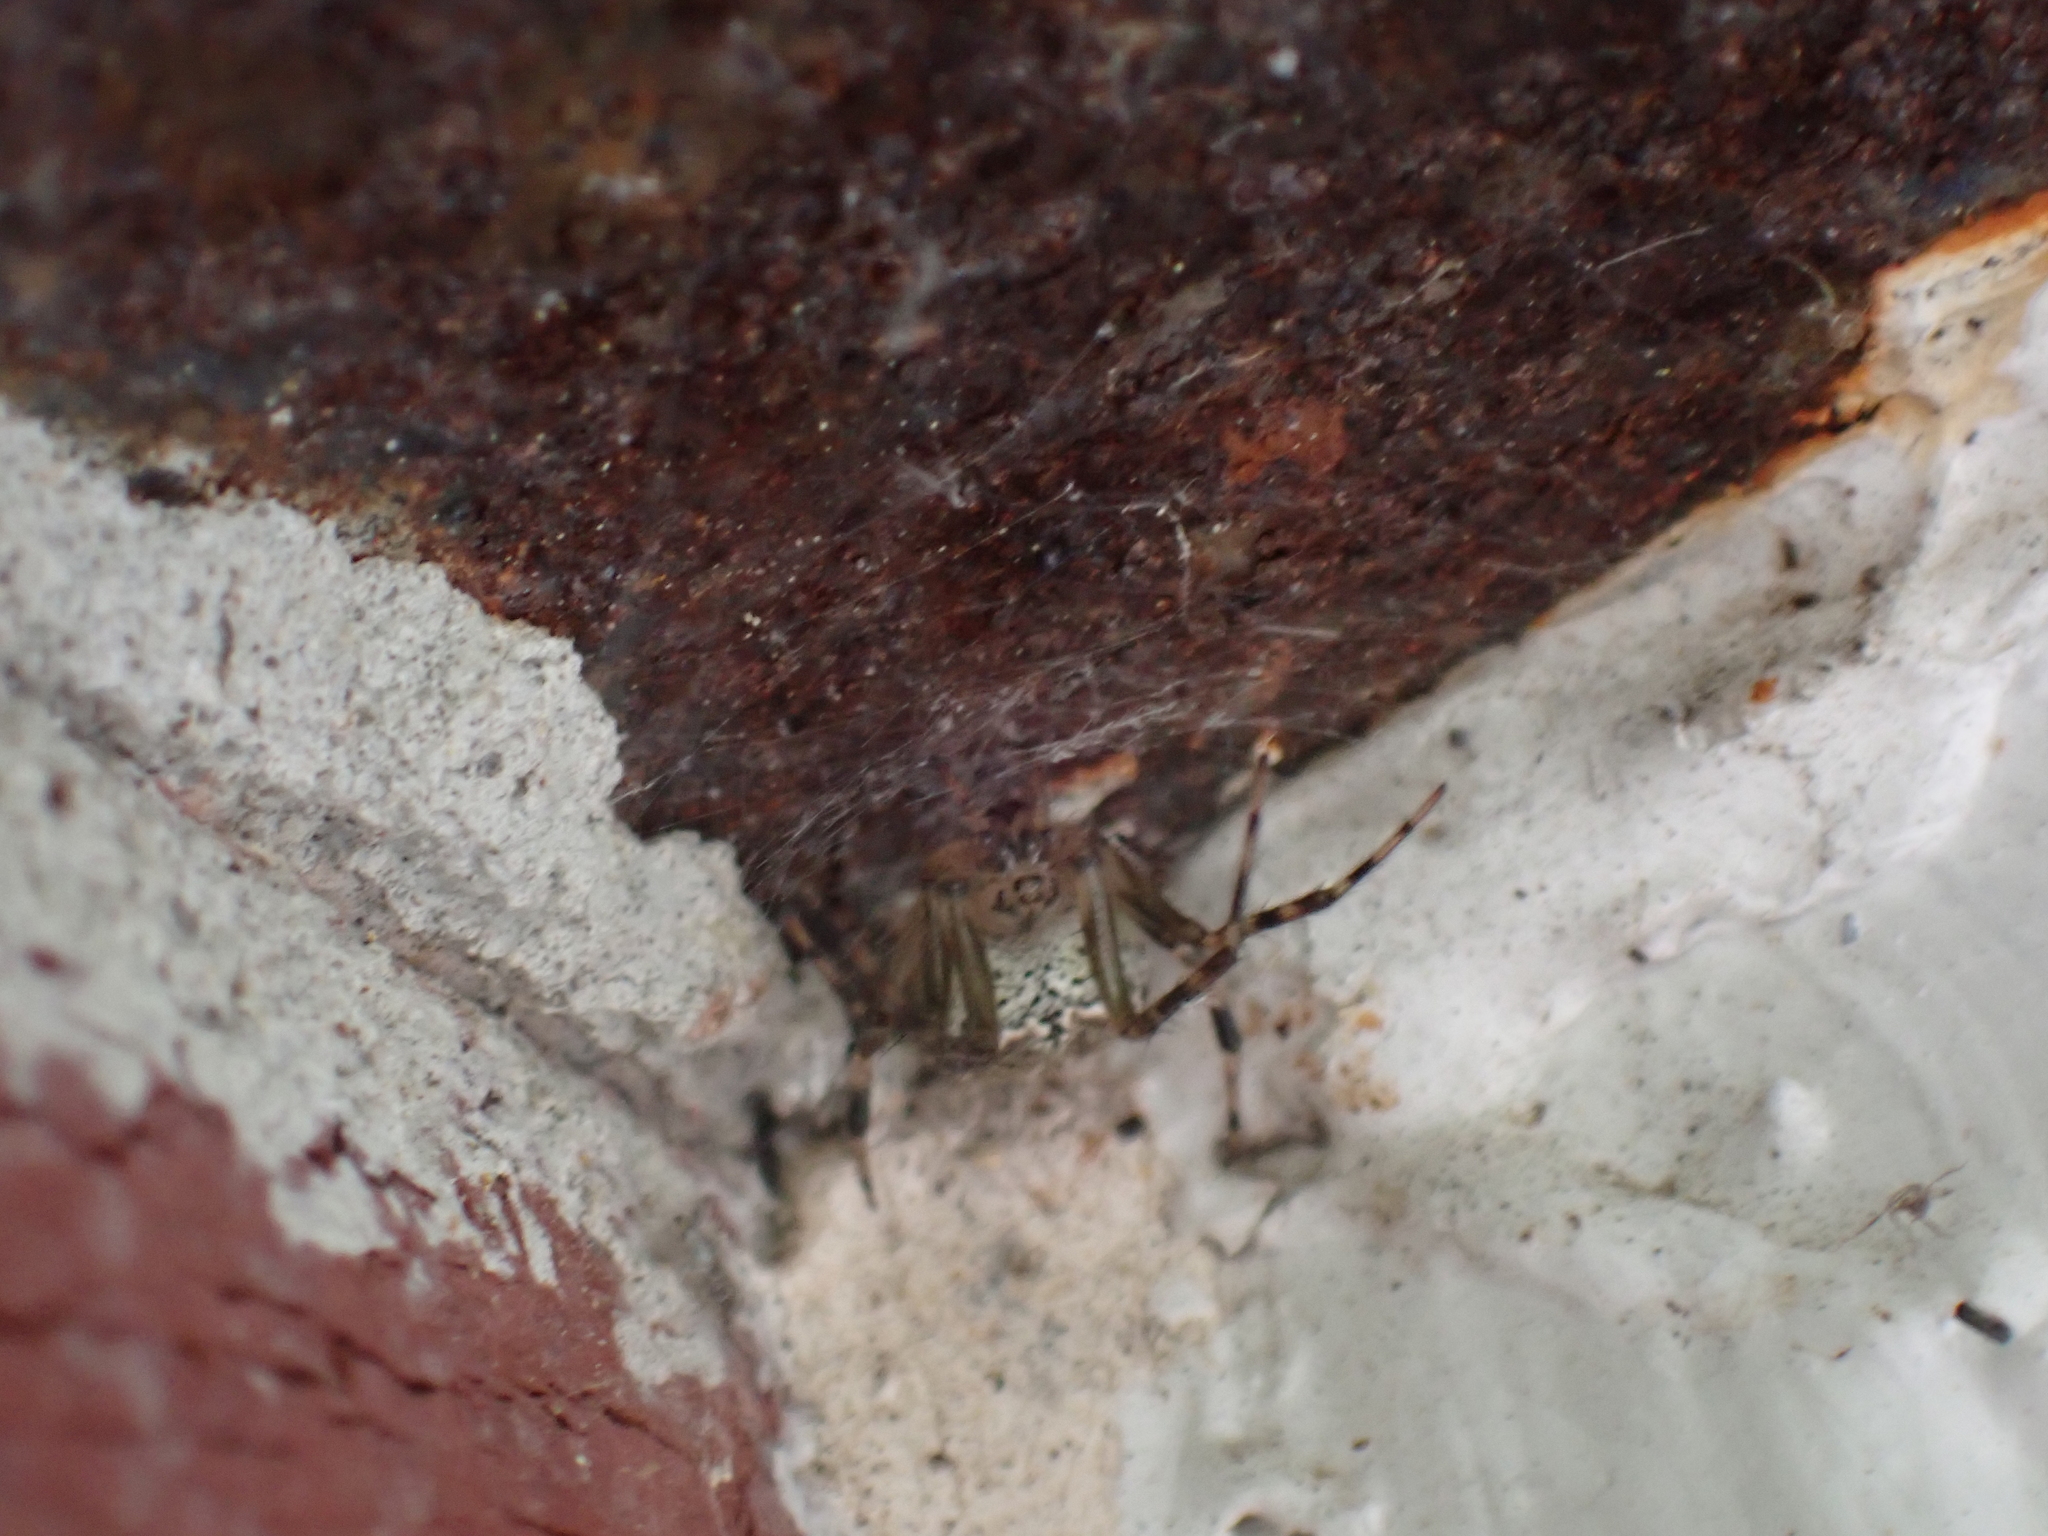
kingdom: Animalia
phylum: Arthropoda
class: Arachnida
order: Araneae
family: Araneidae
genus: Araneus
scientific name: Araneus pegnia
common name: Orb weavers
